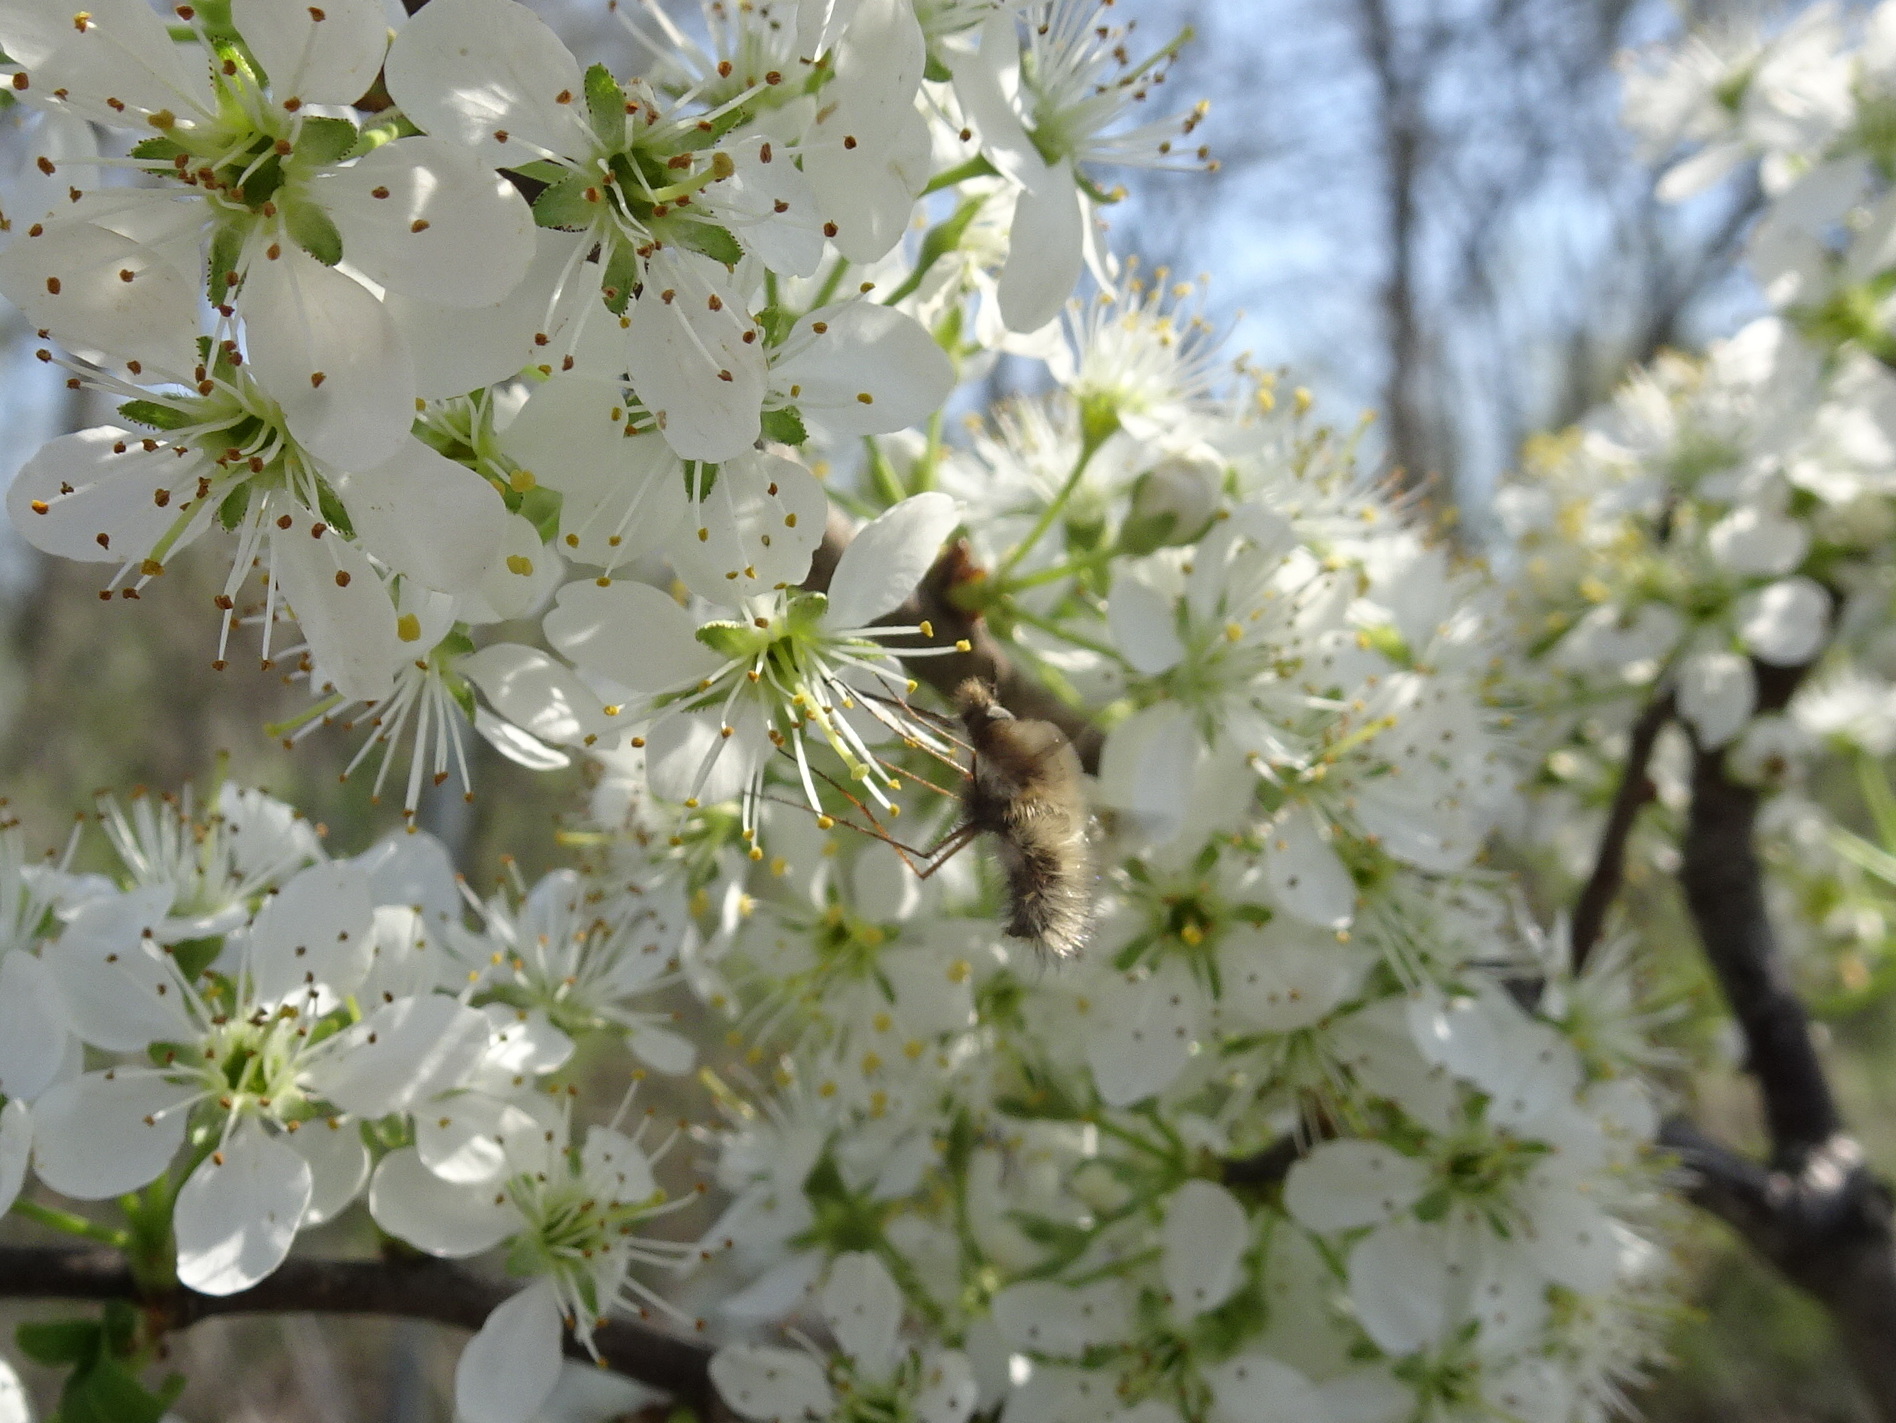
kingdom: Animalia
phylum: Arthropoda
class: Insecta
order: Diptera
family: Bombyliidae
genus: Bombylius
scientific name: Bombylius major
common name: Bee fly
